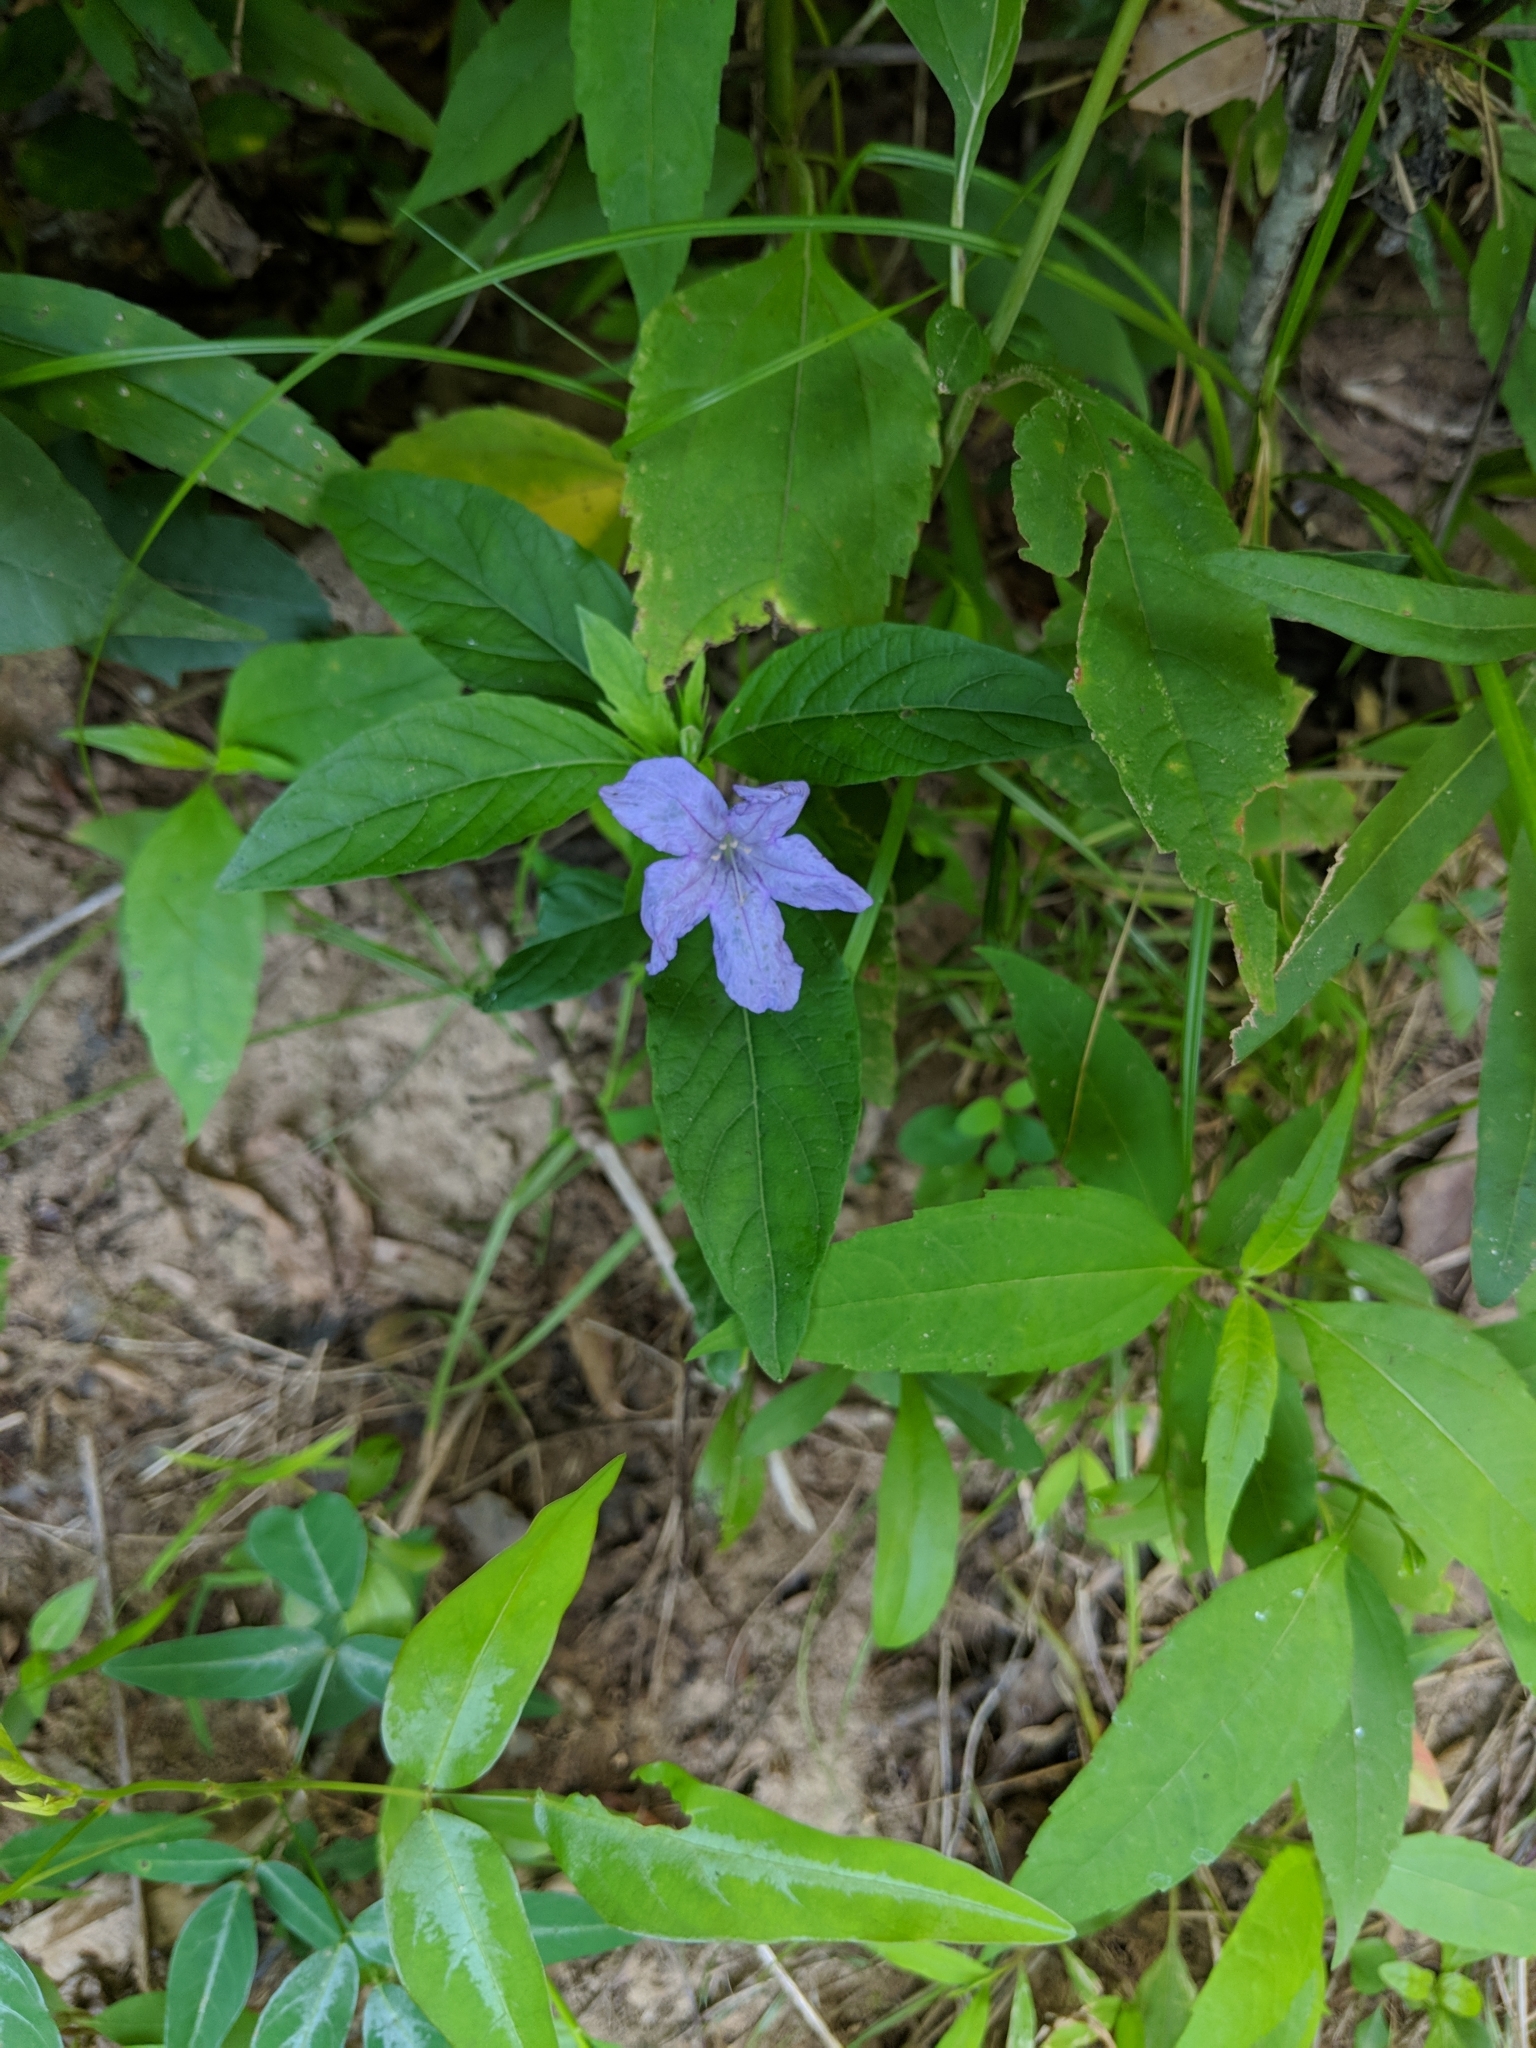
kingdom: Plantae
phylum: Tracheophyta
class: Magnoliopsida
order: Lamiales
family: Acanthaceae
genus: Ruellia
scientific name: Ruellia caroliniensis
